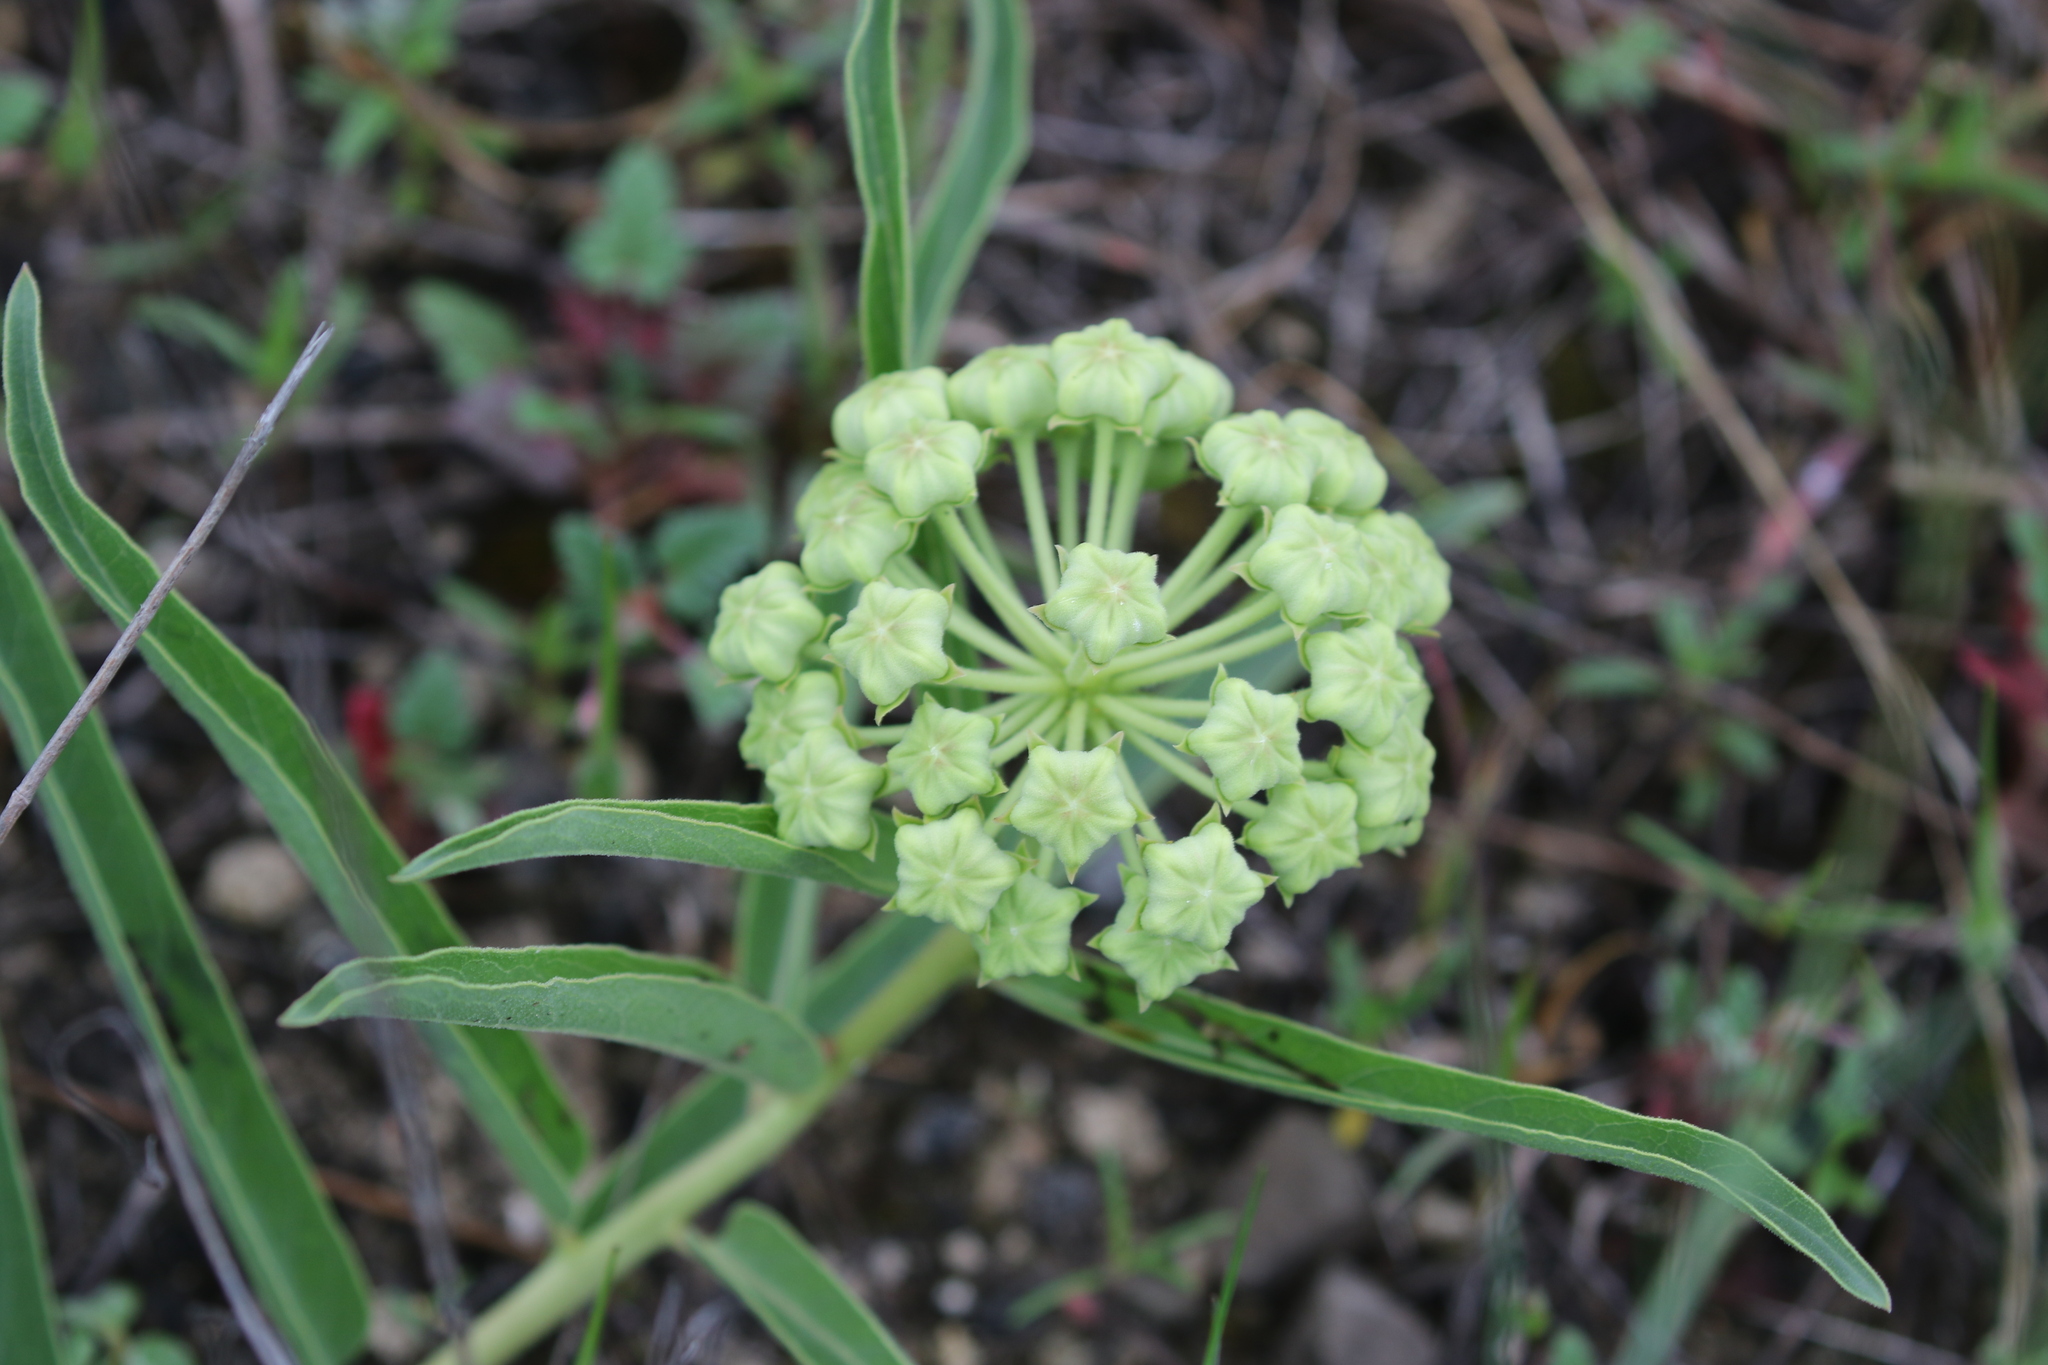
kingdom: Plantae
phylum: Tracheophyta
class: Magnoliopsida
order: Gentianales
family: Apocynaceae
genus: Asclepias
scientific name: Asclepias asperula
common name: Antelope horns
